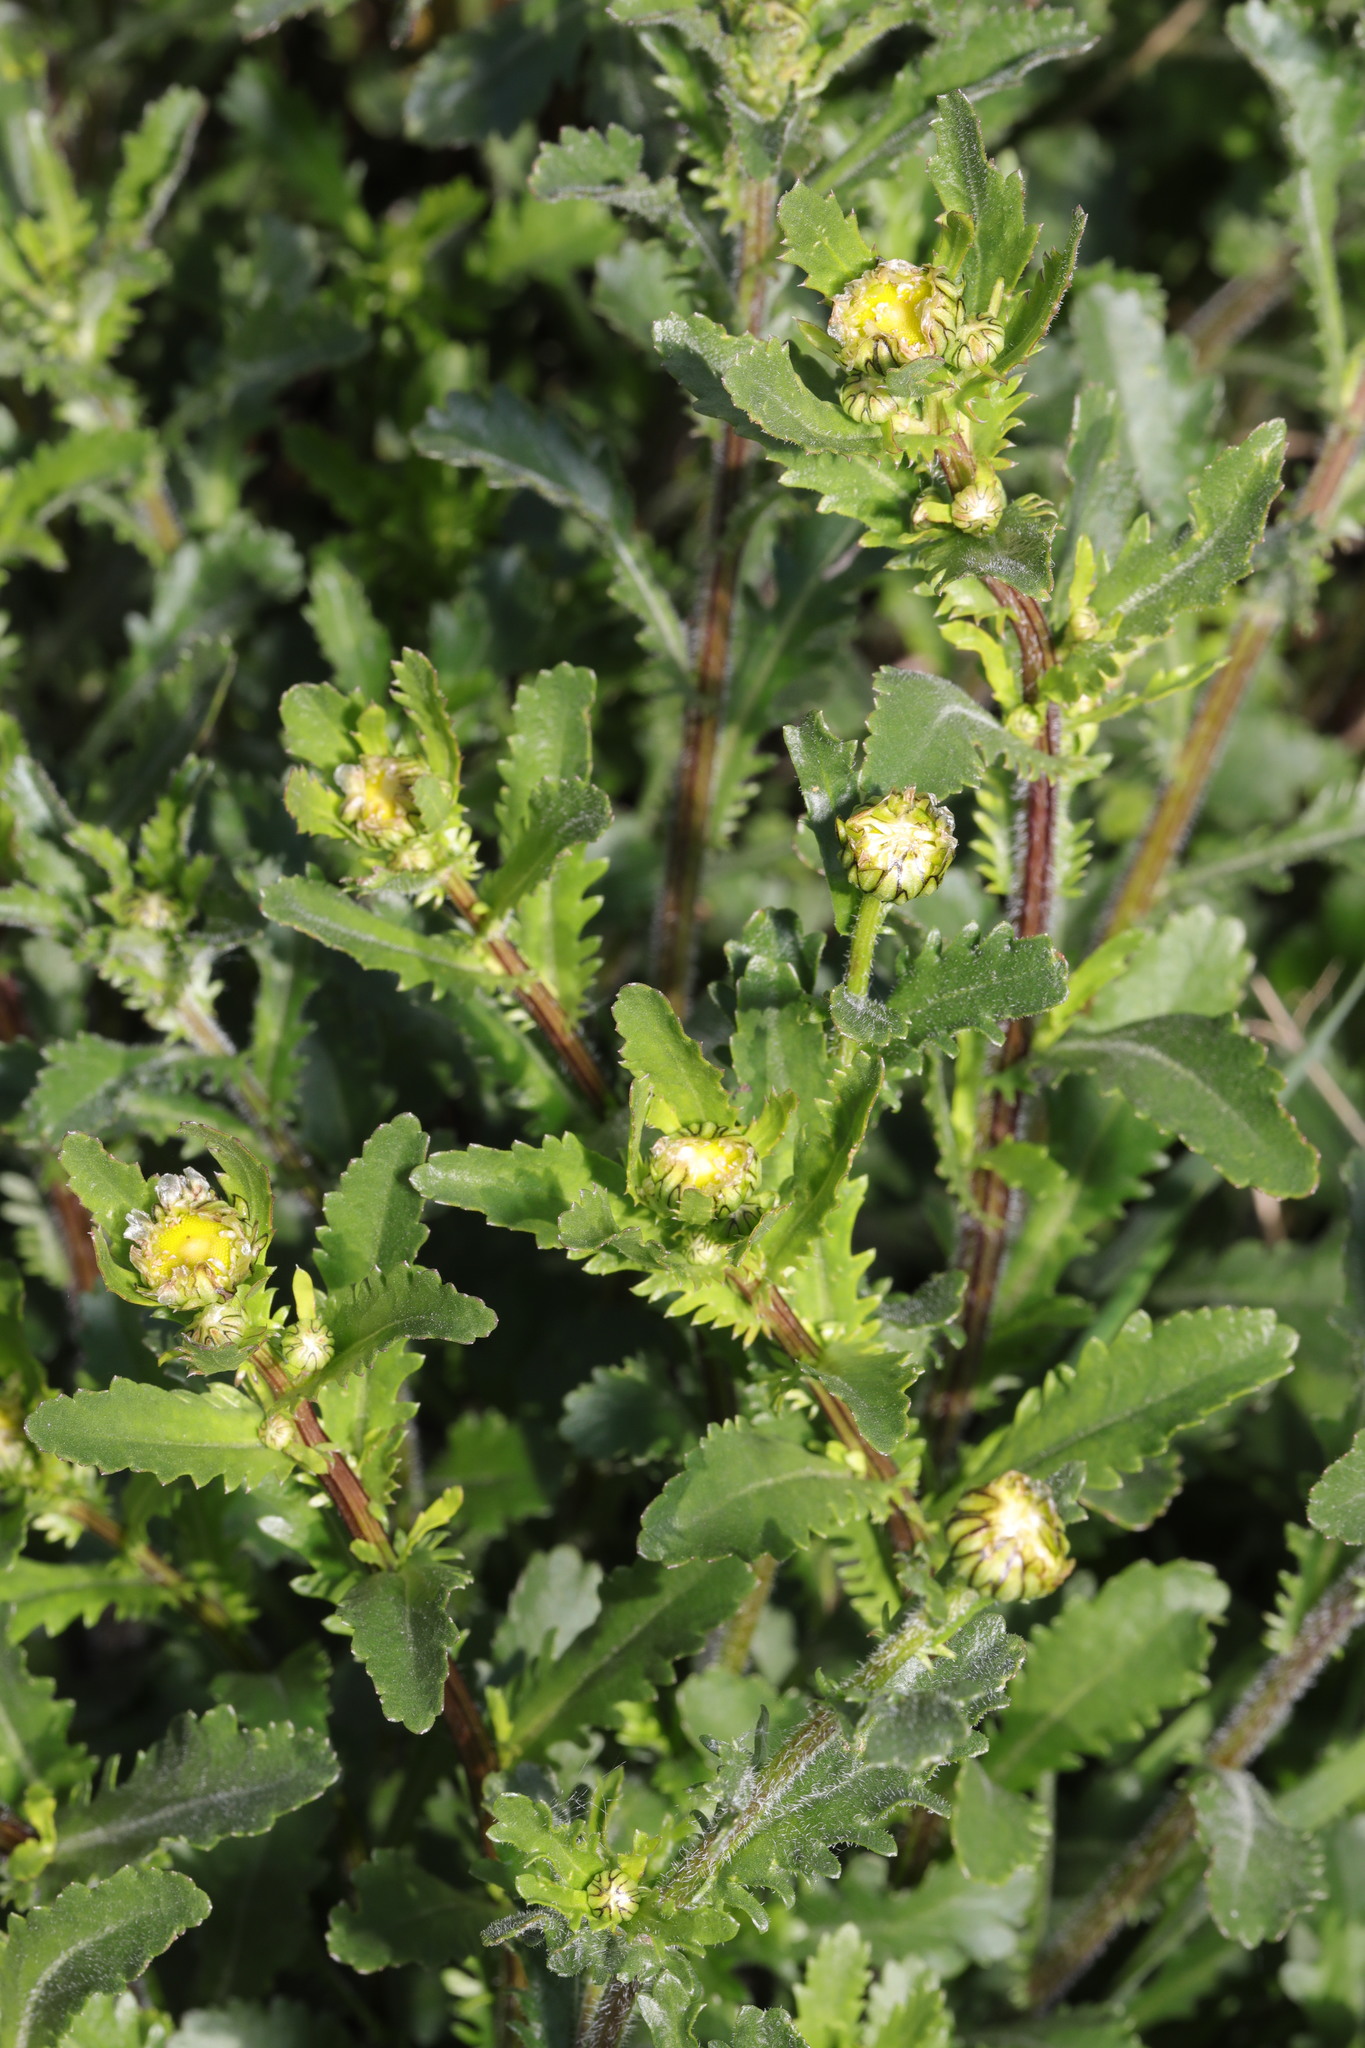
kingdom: Plantae
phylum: Tracheophyta
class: Magnoliopsida
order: Asterales
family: Asteraceae
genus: Leucanthemum
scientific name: Leucanthemum vulgare
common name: Oxeye daisy
